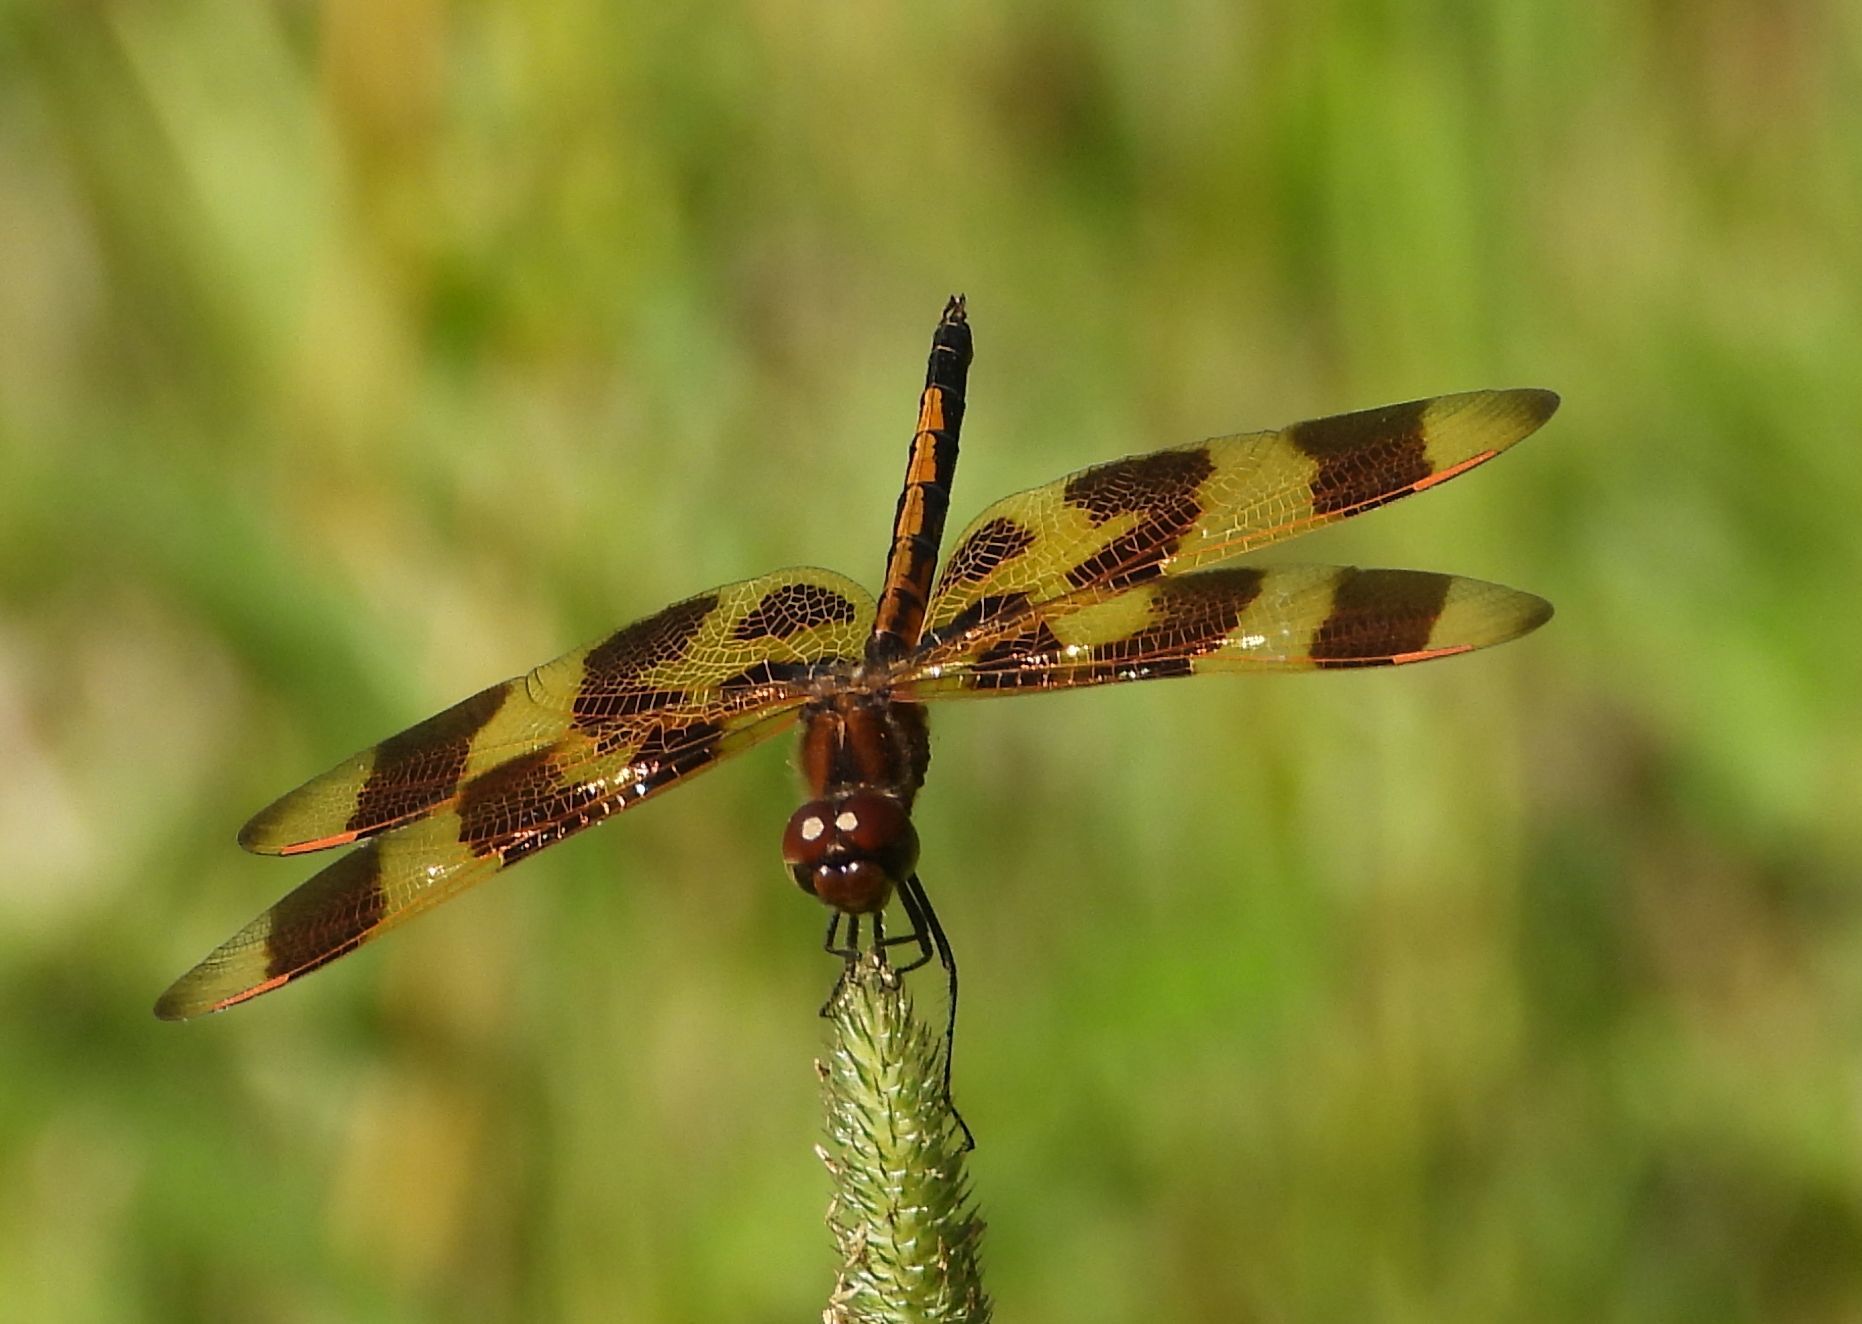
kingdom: Animalia
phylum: Arthropoda
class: Insecta
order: Odonata
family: Libellulidae
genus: Celithemis
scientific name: Celithemis eponina
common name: Halloween pennant
